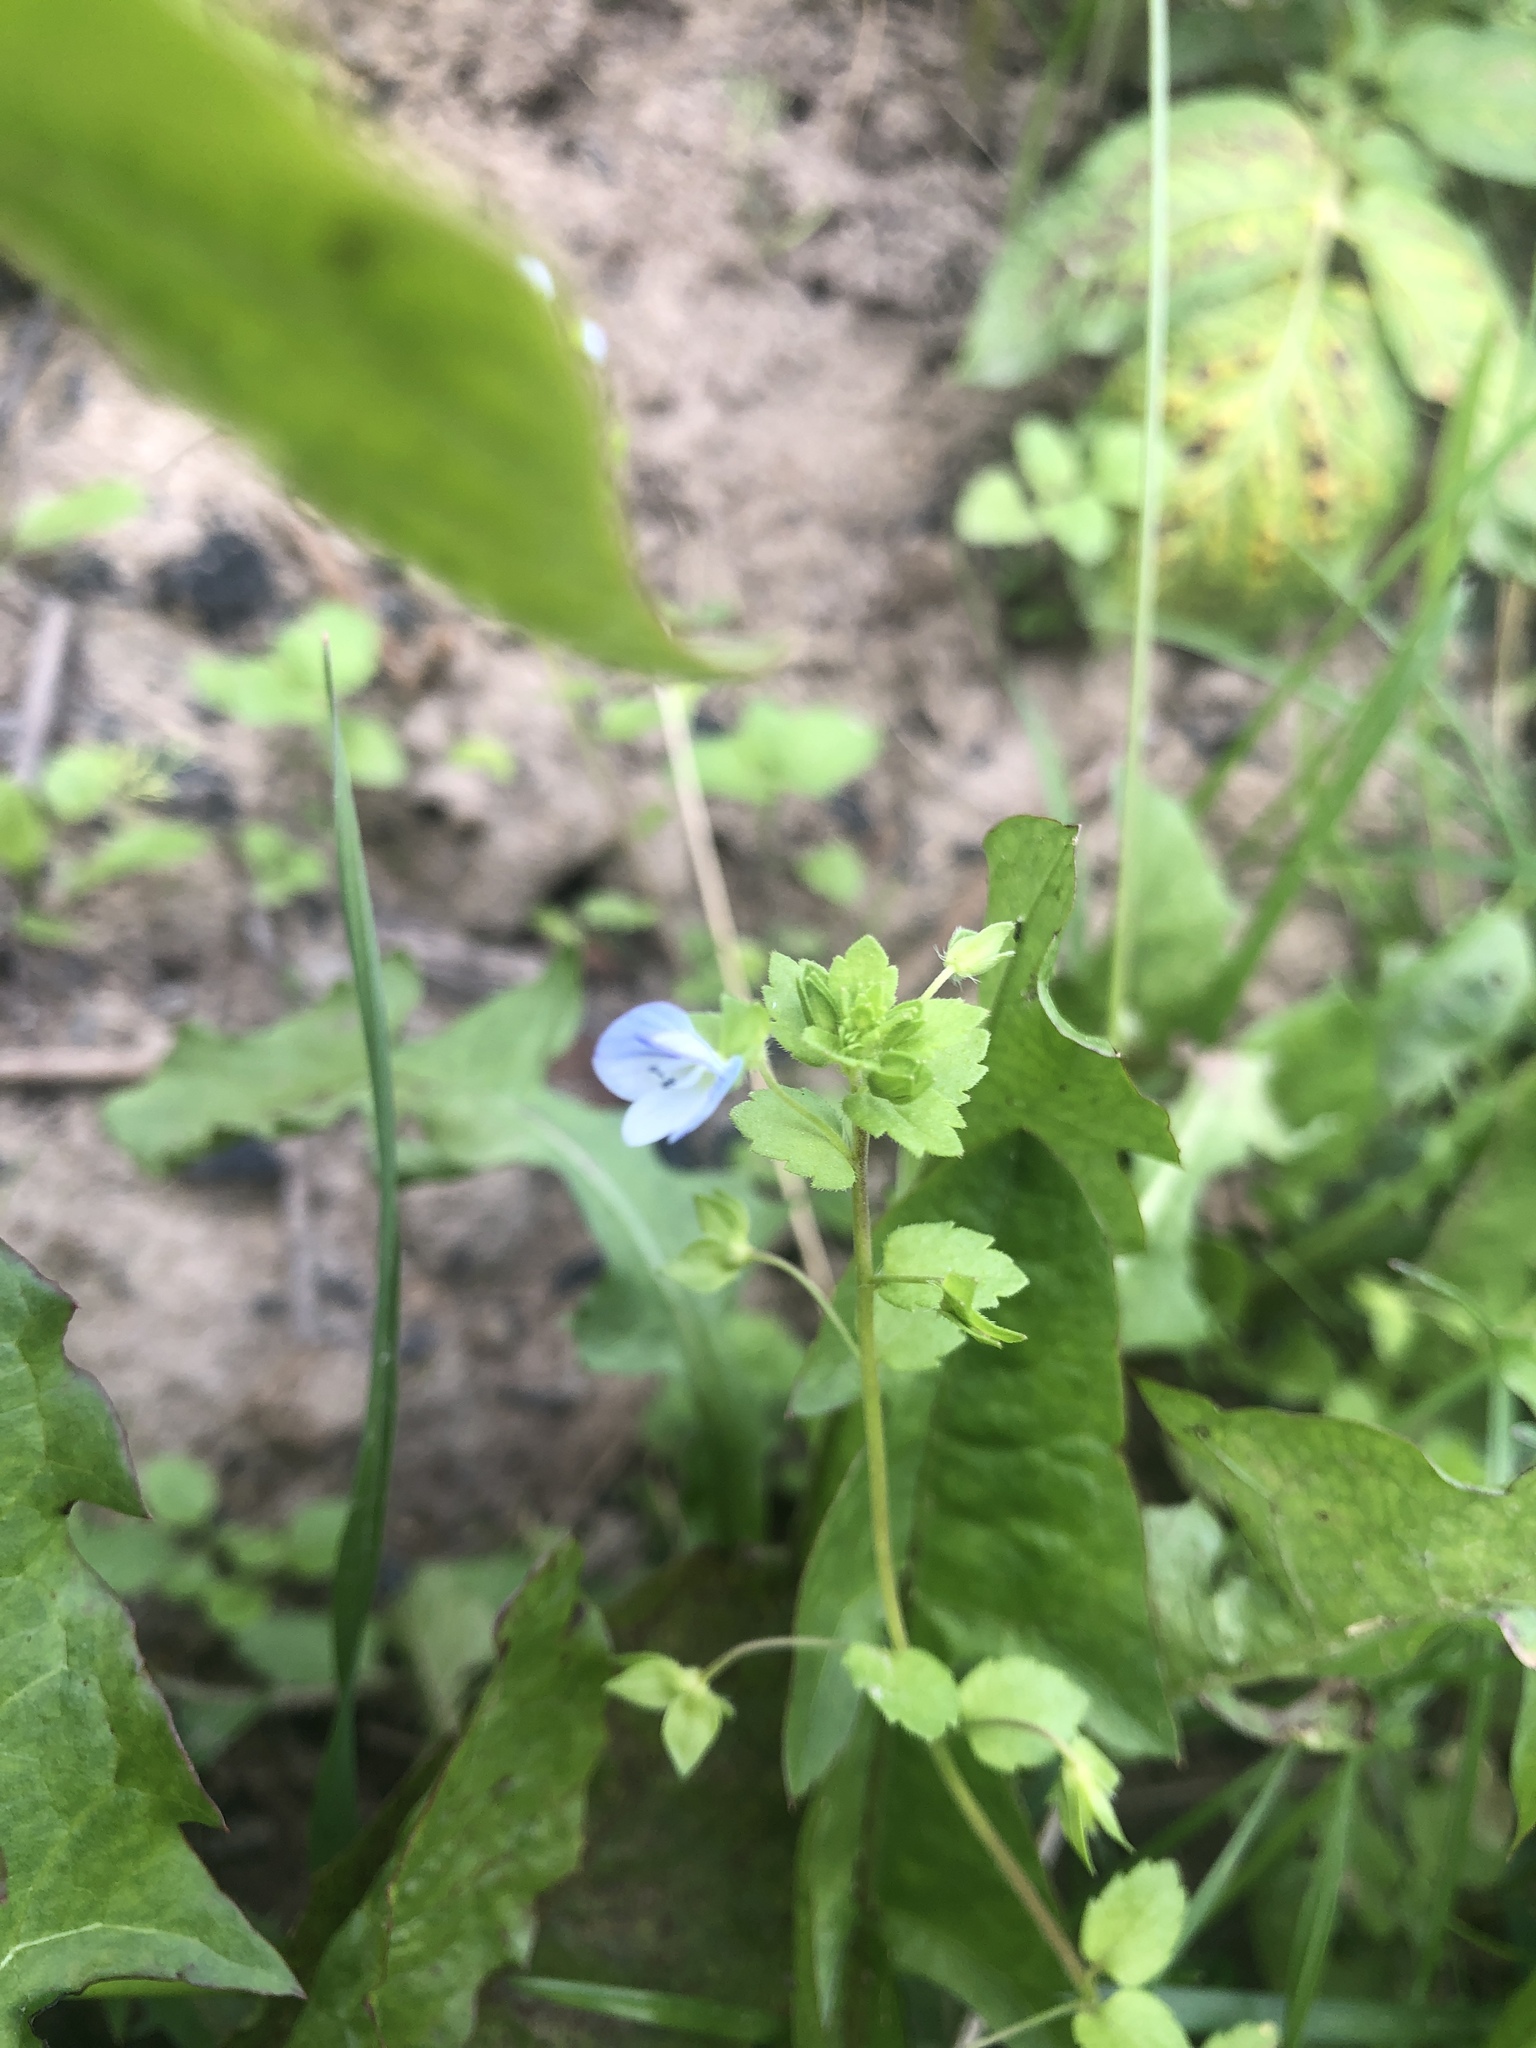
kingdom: Plantae
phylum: Tracheophyta
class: Magnoliopsida
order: Lamiales
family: Plantaginaceae
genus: Veronica
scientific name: Veronica persica
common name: Common field-speedwell
